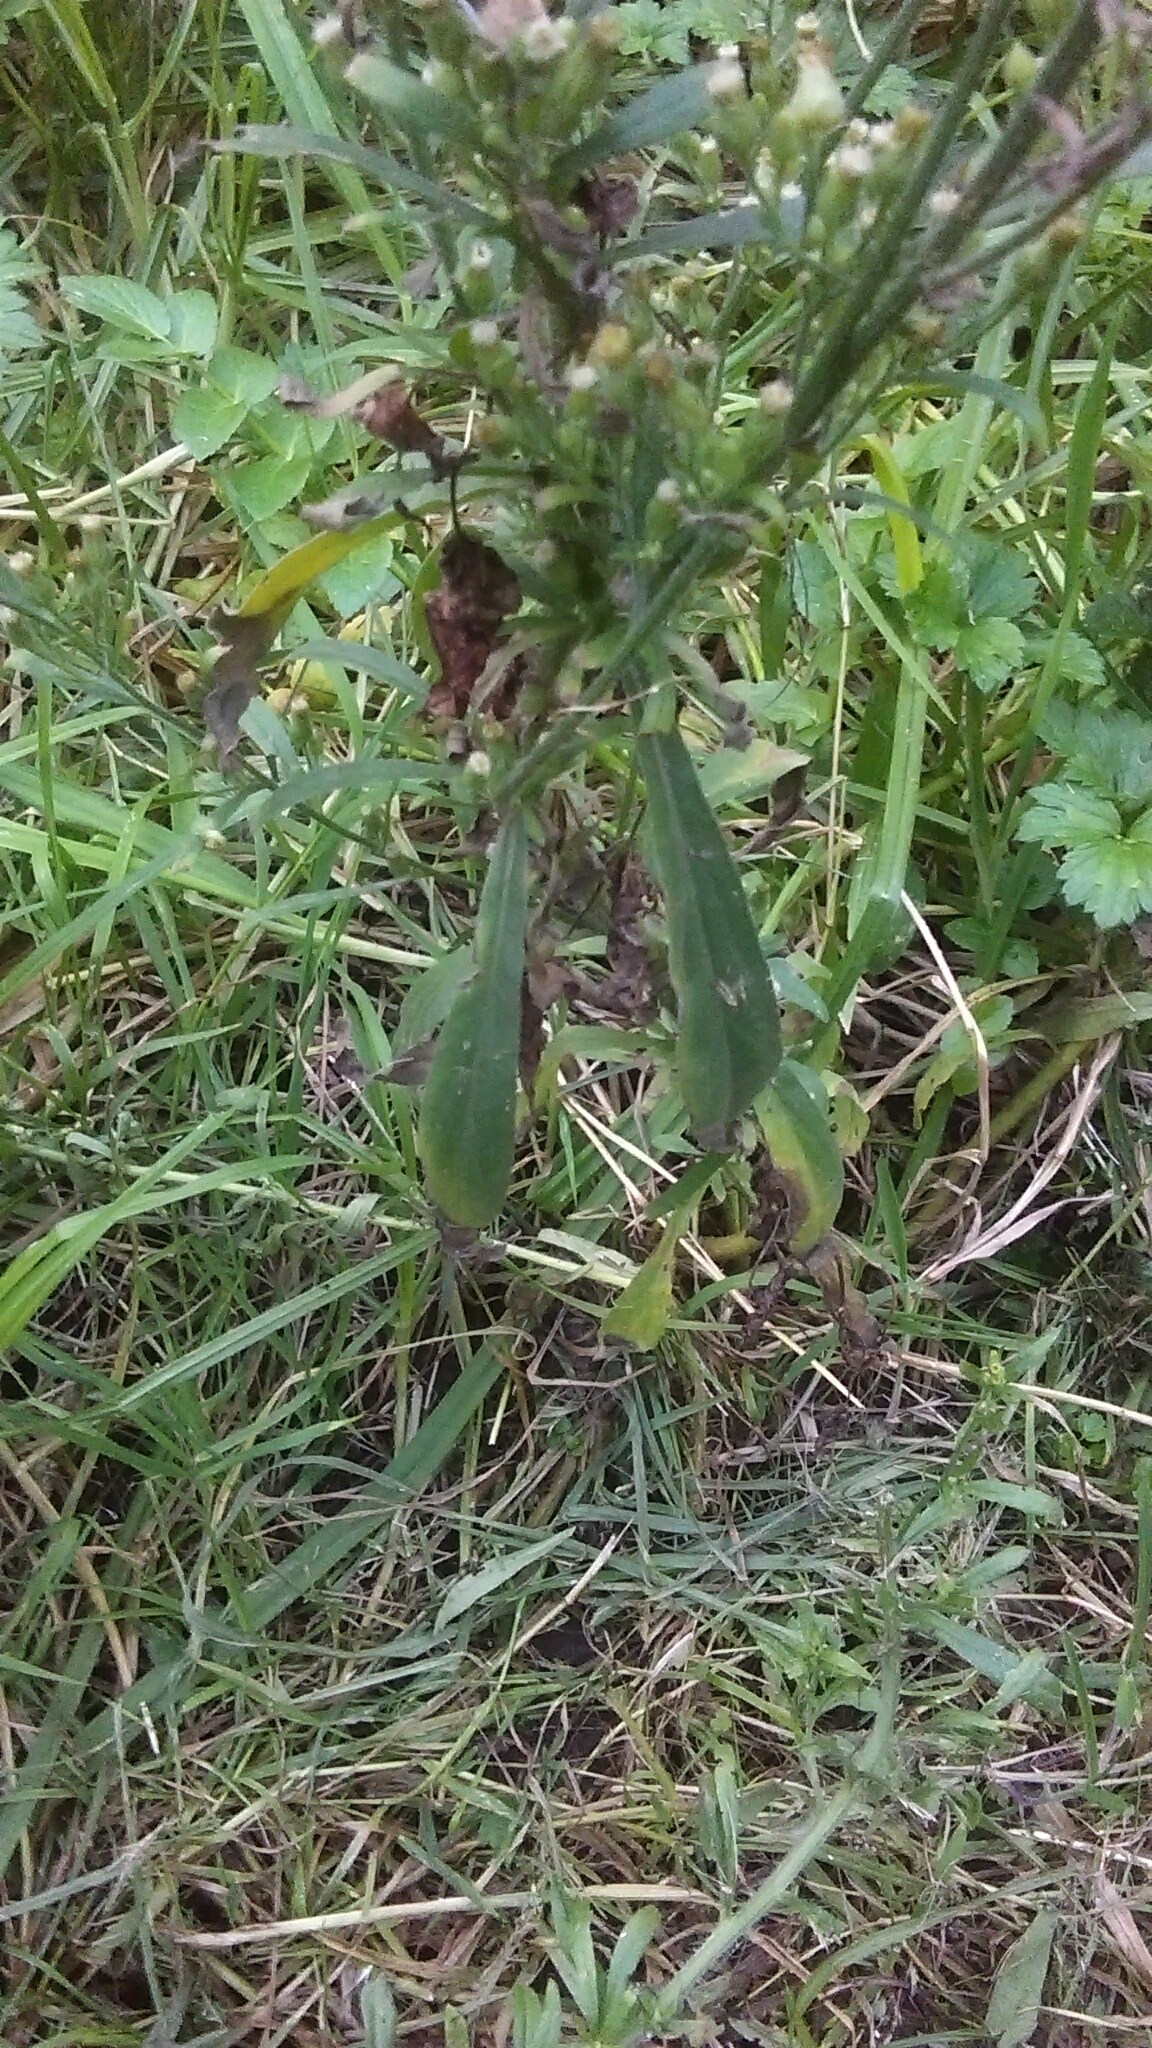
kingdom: Plantae
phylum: Tracheophyta
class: Magnoliopsida
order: Asterales
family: Asteraceae
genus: Erigeron
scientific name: Erigeron sumatrensis
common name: Daisy
